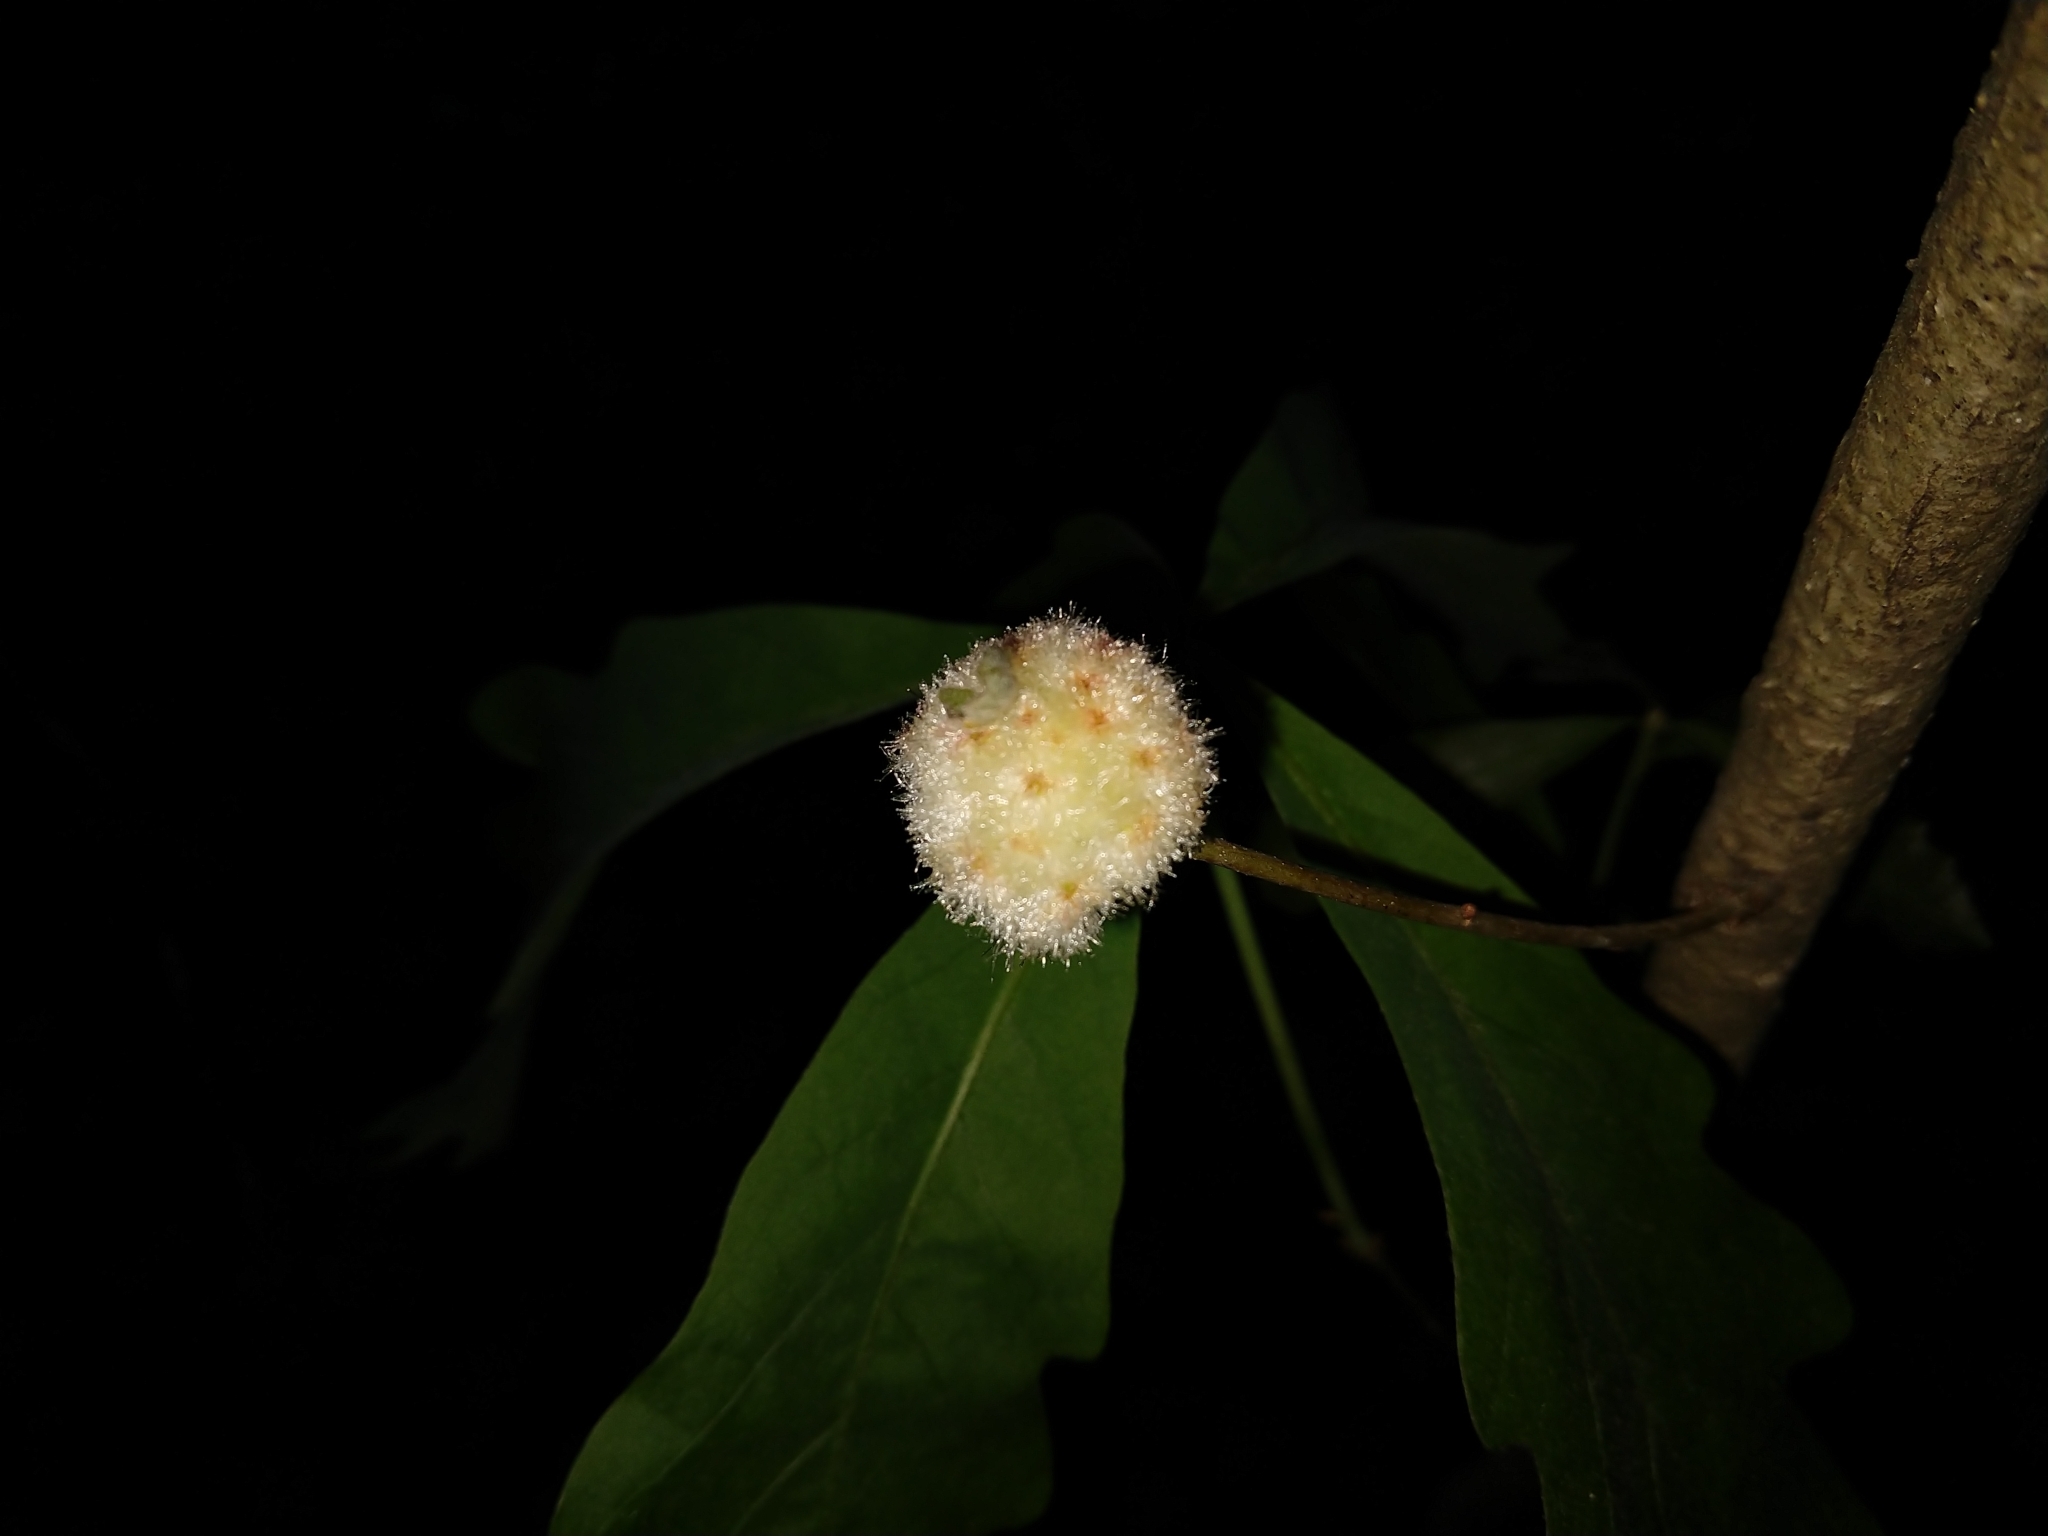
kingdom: Animalia
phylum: Arthropoda
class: Insecta
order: Hymenoptera
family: Cynipidae
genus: Callirhytis
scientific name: Callirhytis
